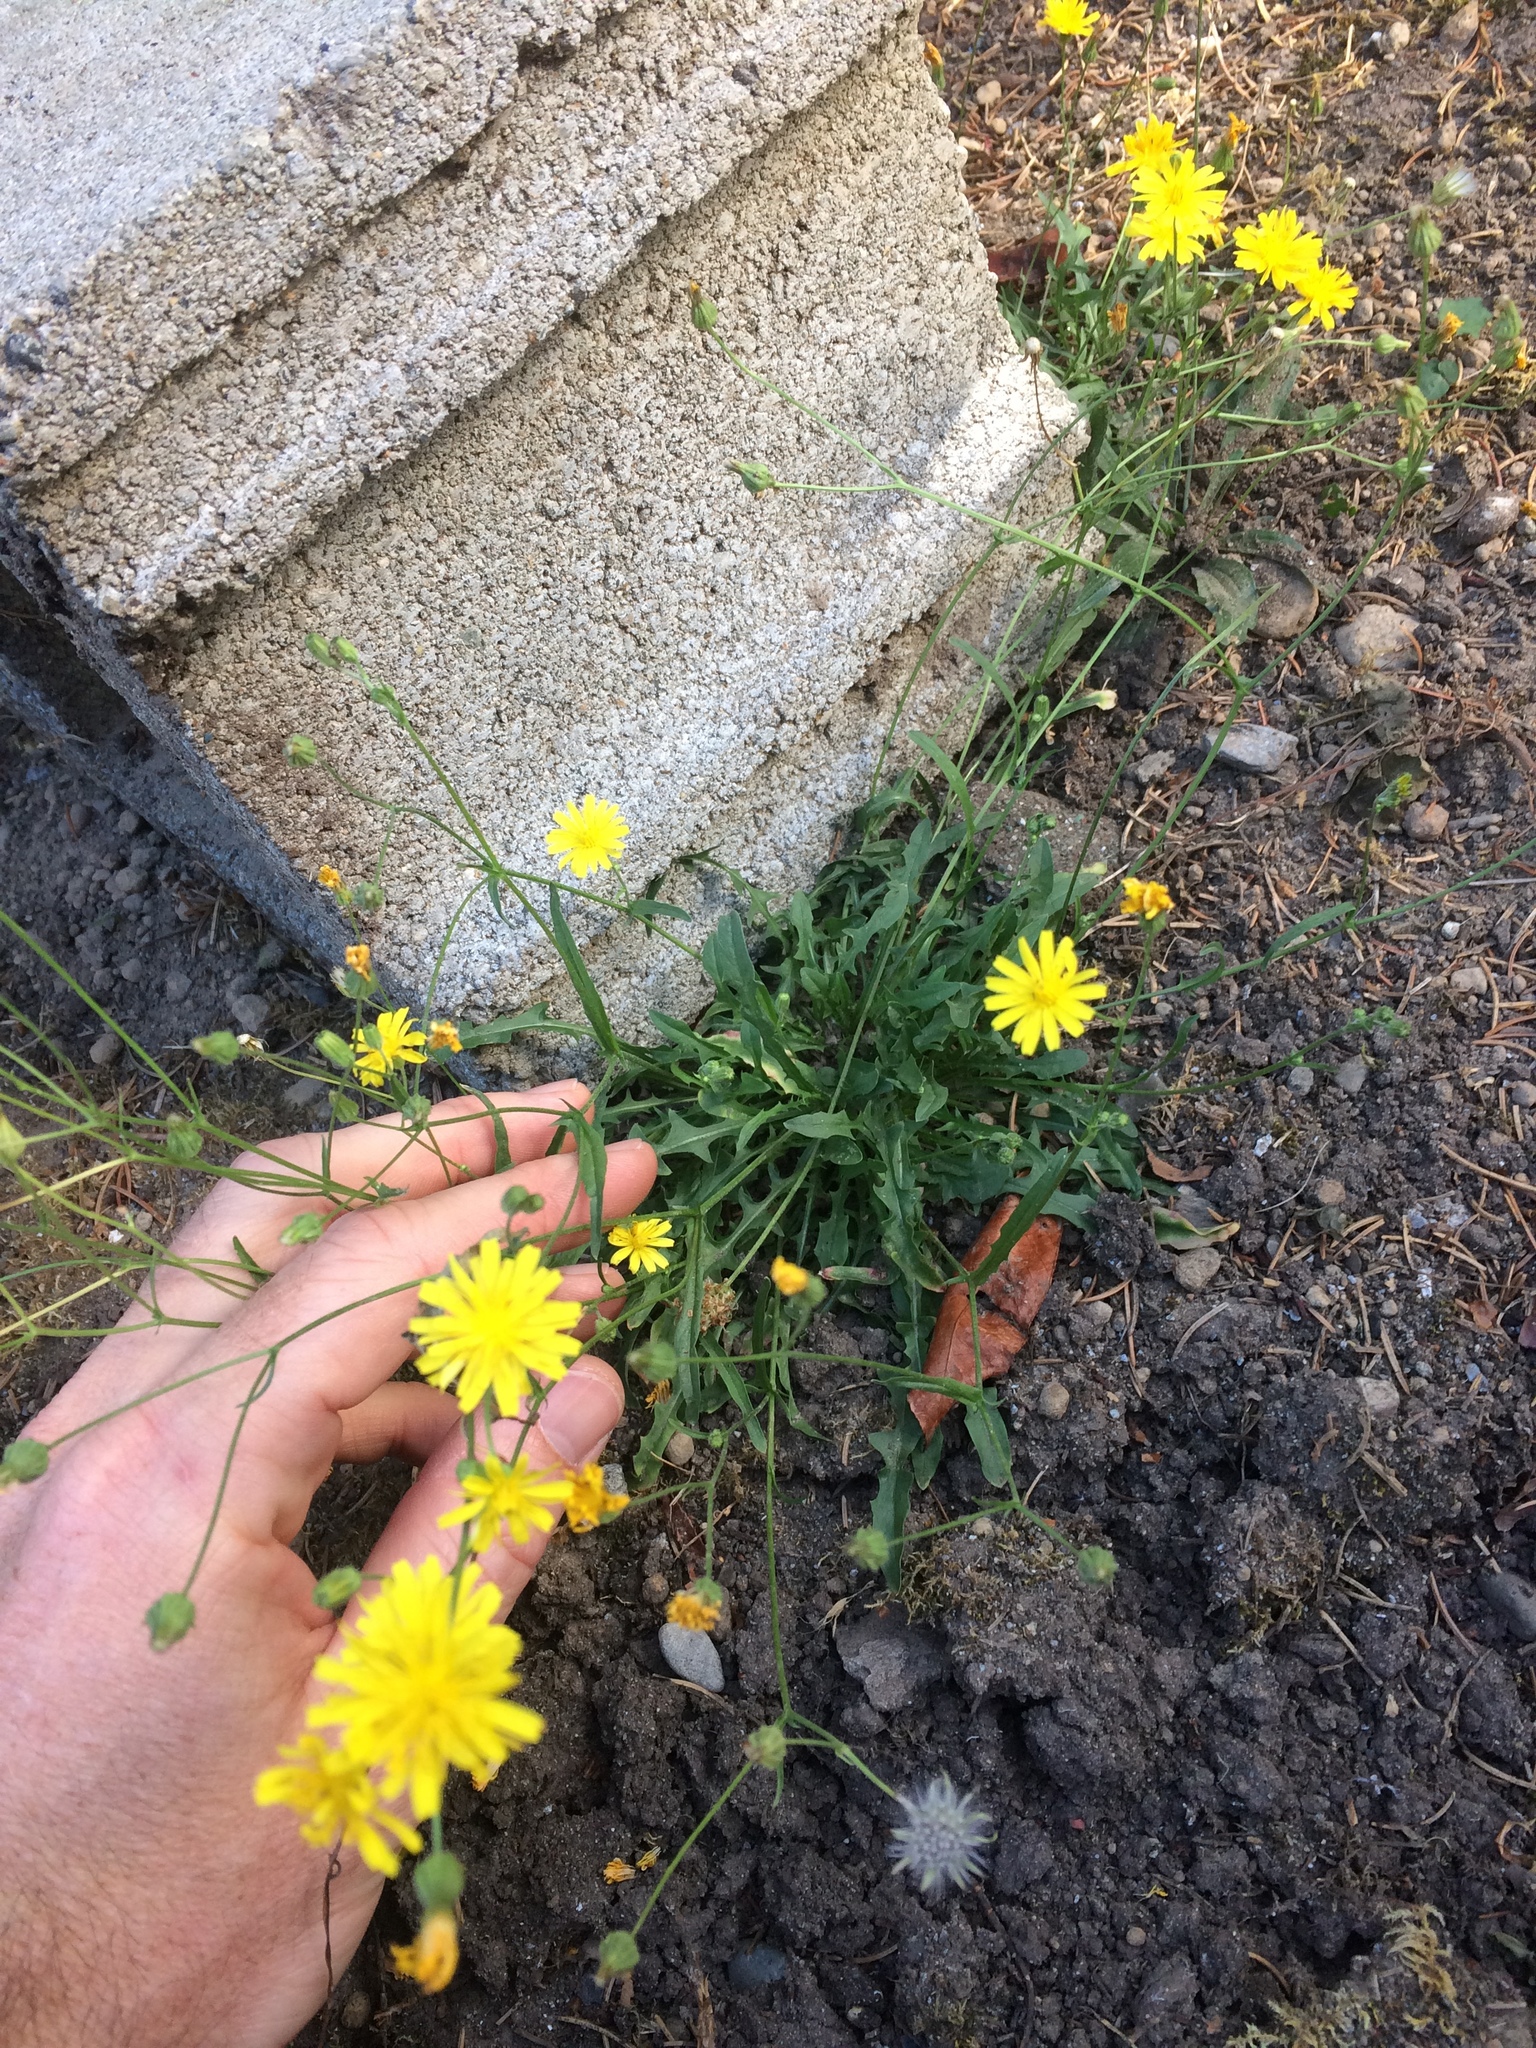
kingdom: Plantae
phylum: Tracheophyta
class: Magnoliopsida
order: Asterales
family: Asteraceae
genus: Crepis
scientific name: Crepis capillaris
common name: Smooth hawksbeard
